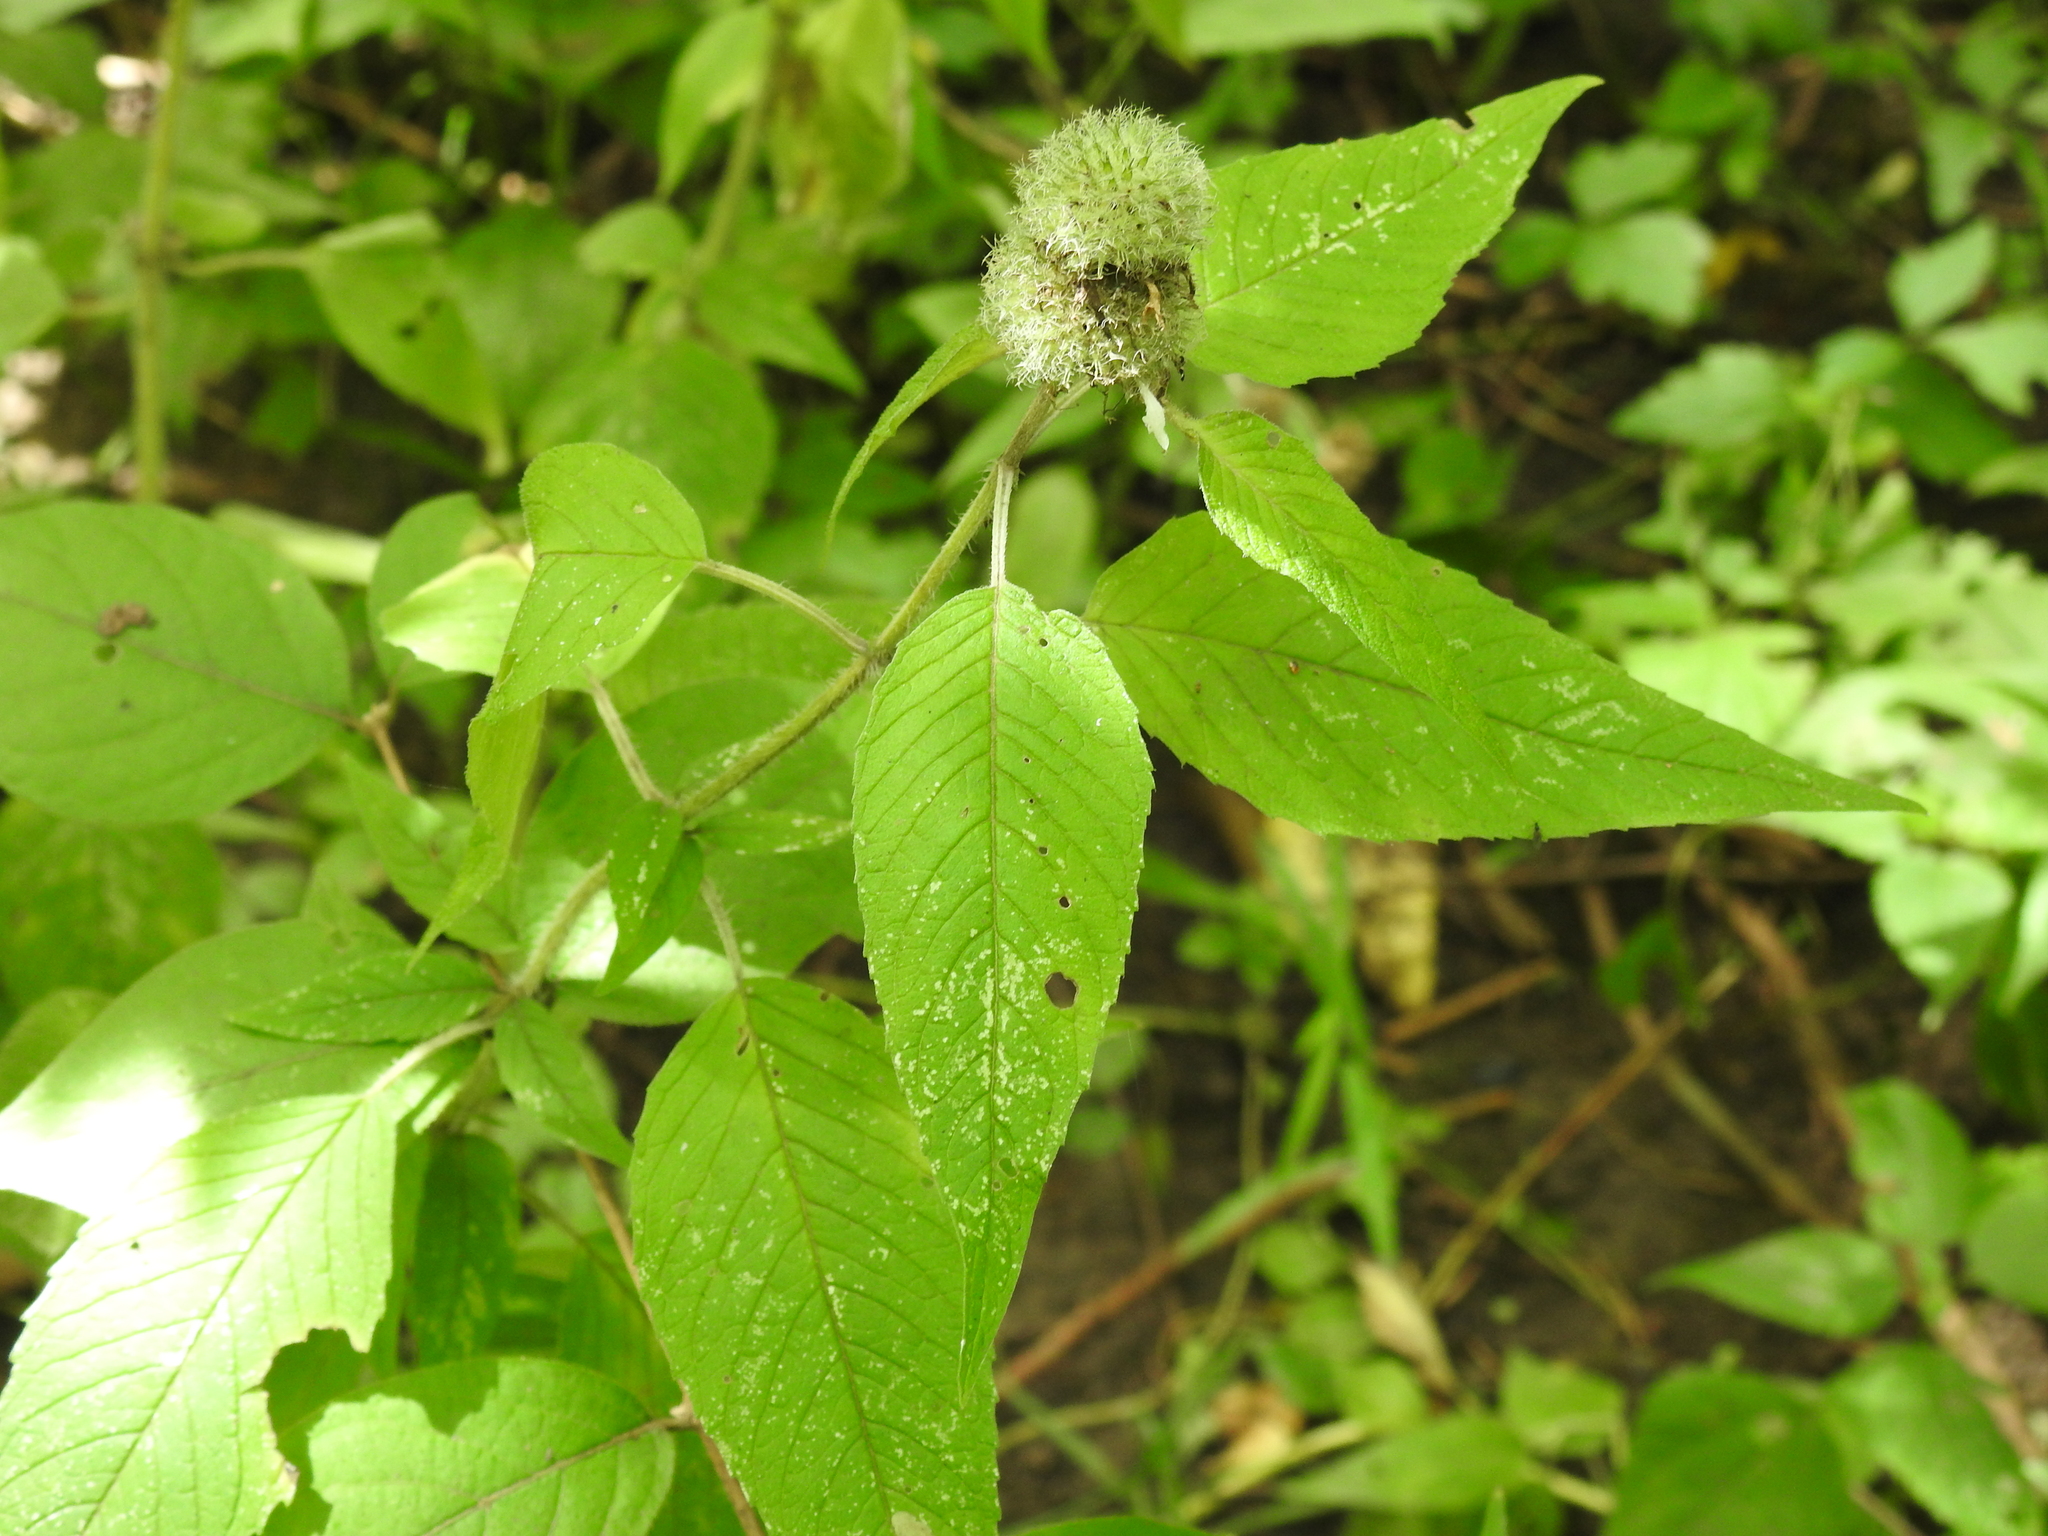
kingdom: Plantae
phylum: Tracheophyta
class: Magnoliopsida
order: Lamiales
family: Lamiaceae
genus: Blephilia
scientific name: Blephilia hirsuta
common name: Hairy blephilia
